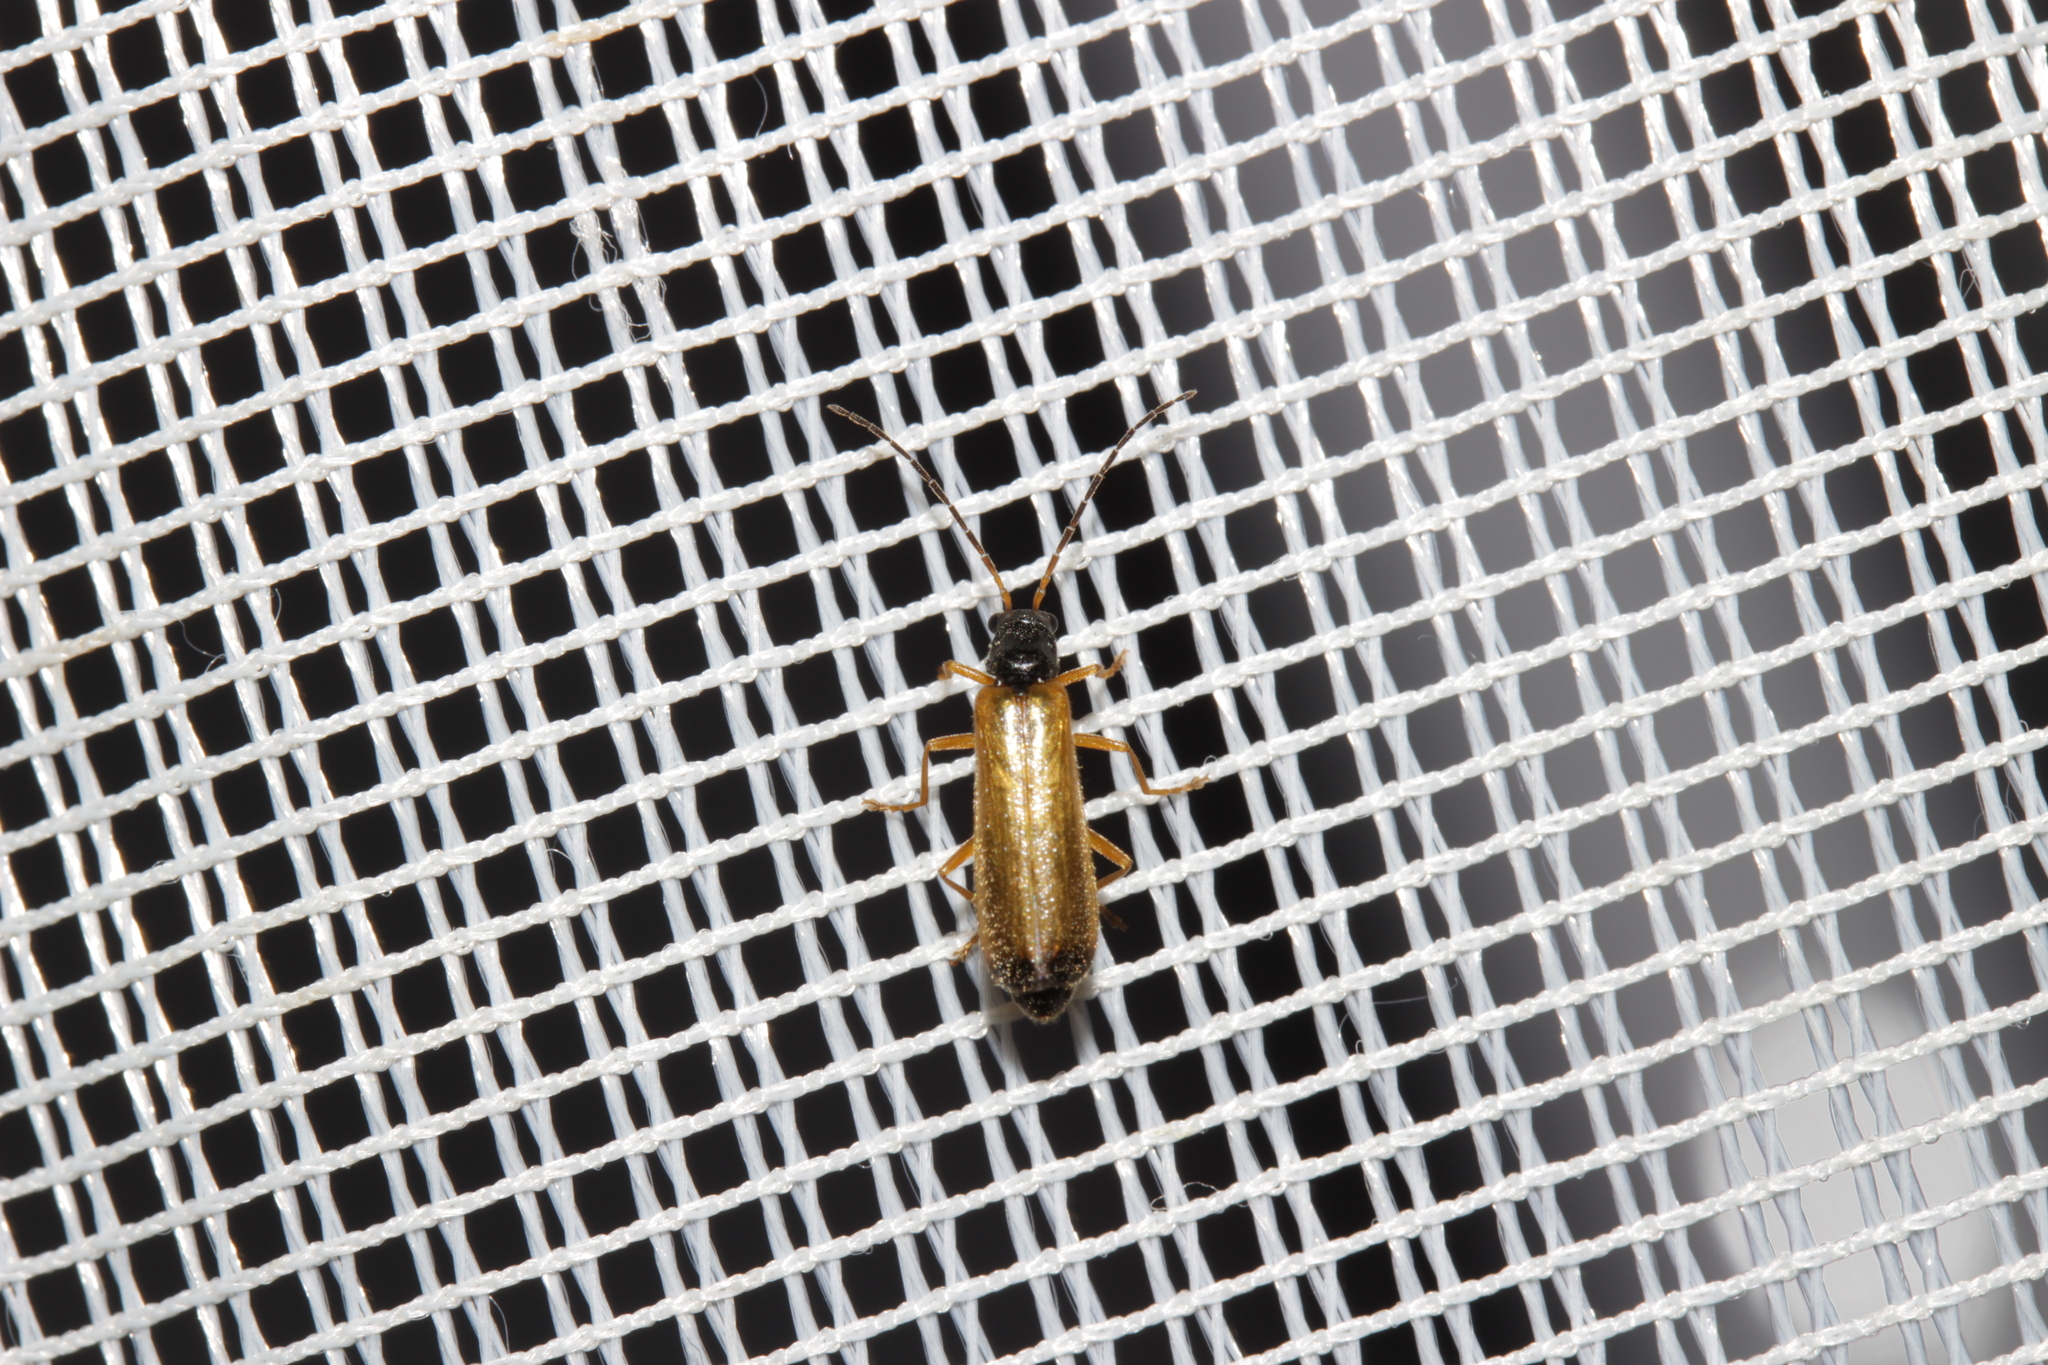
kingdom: Animalia
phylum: Arthropoda
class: Insecta
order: Coleoptera
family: Cantharidae
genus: Rhagonycha
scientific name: Rhagonycha lignosa
